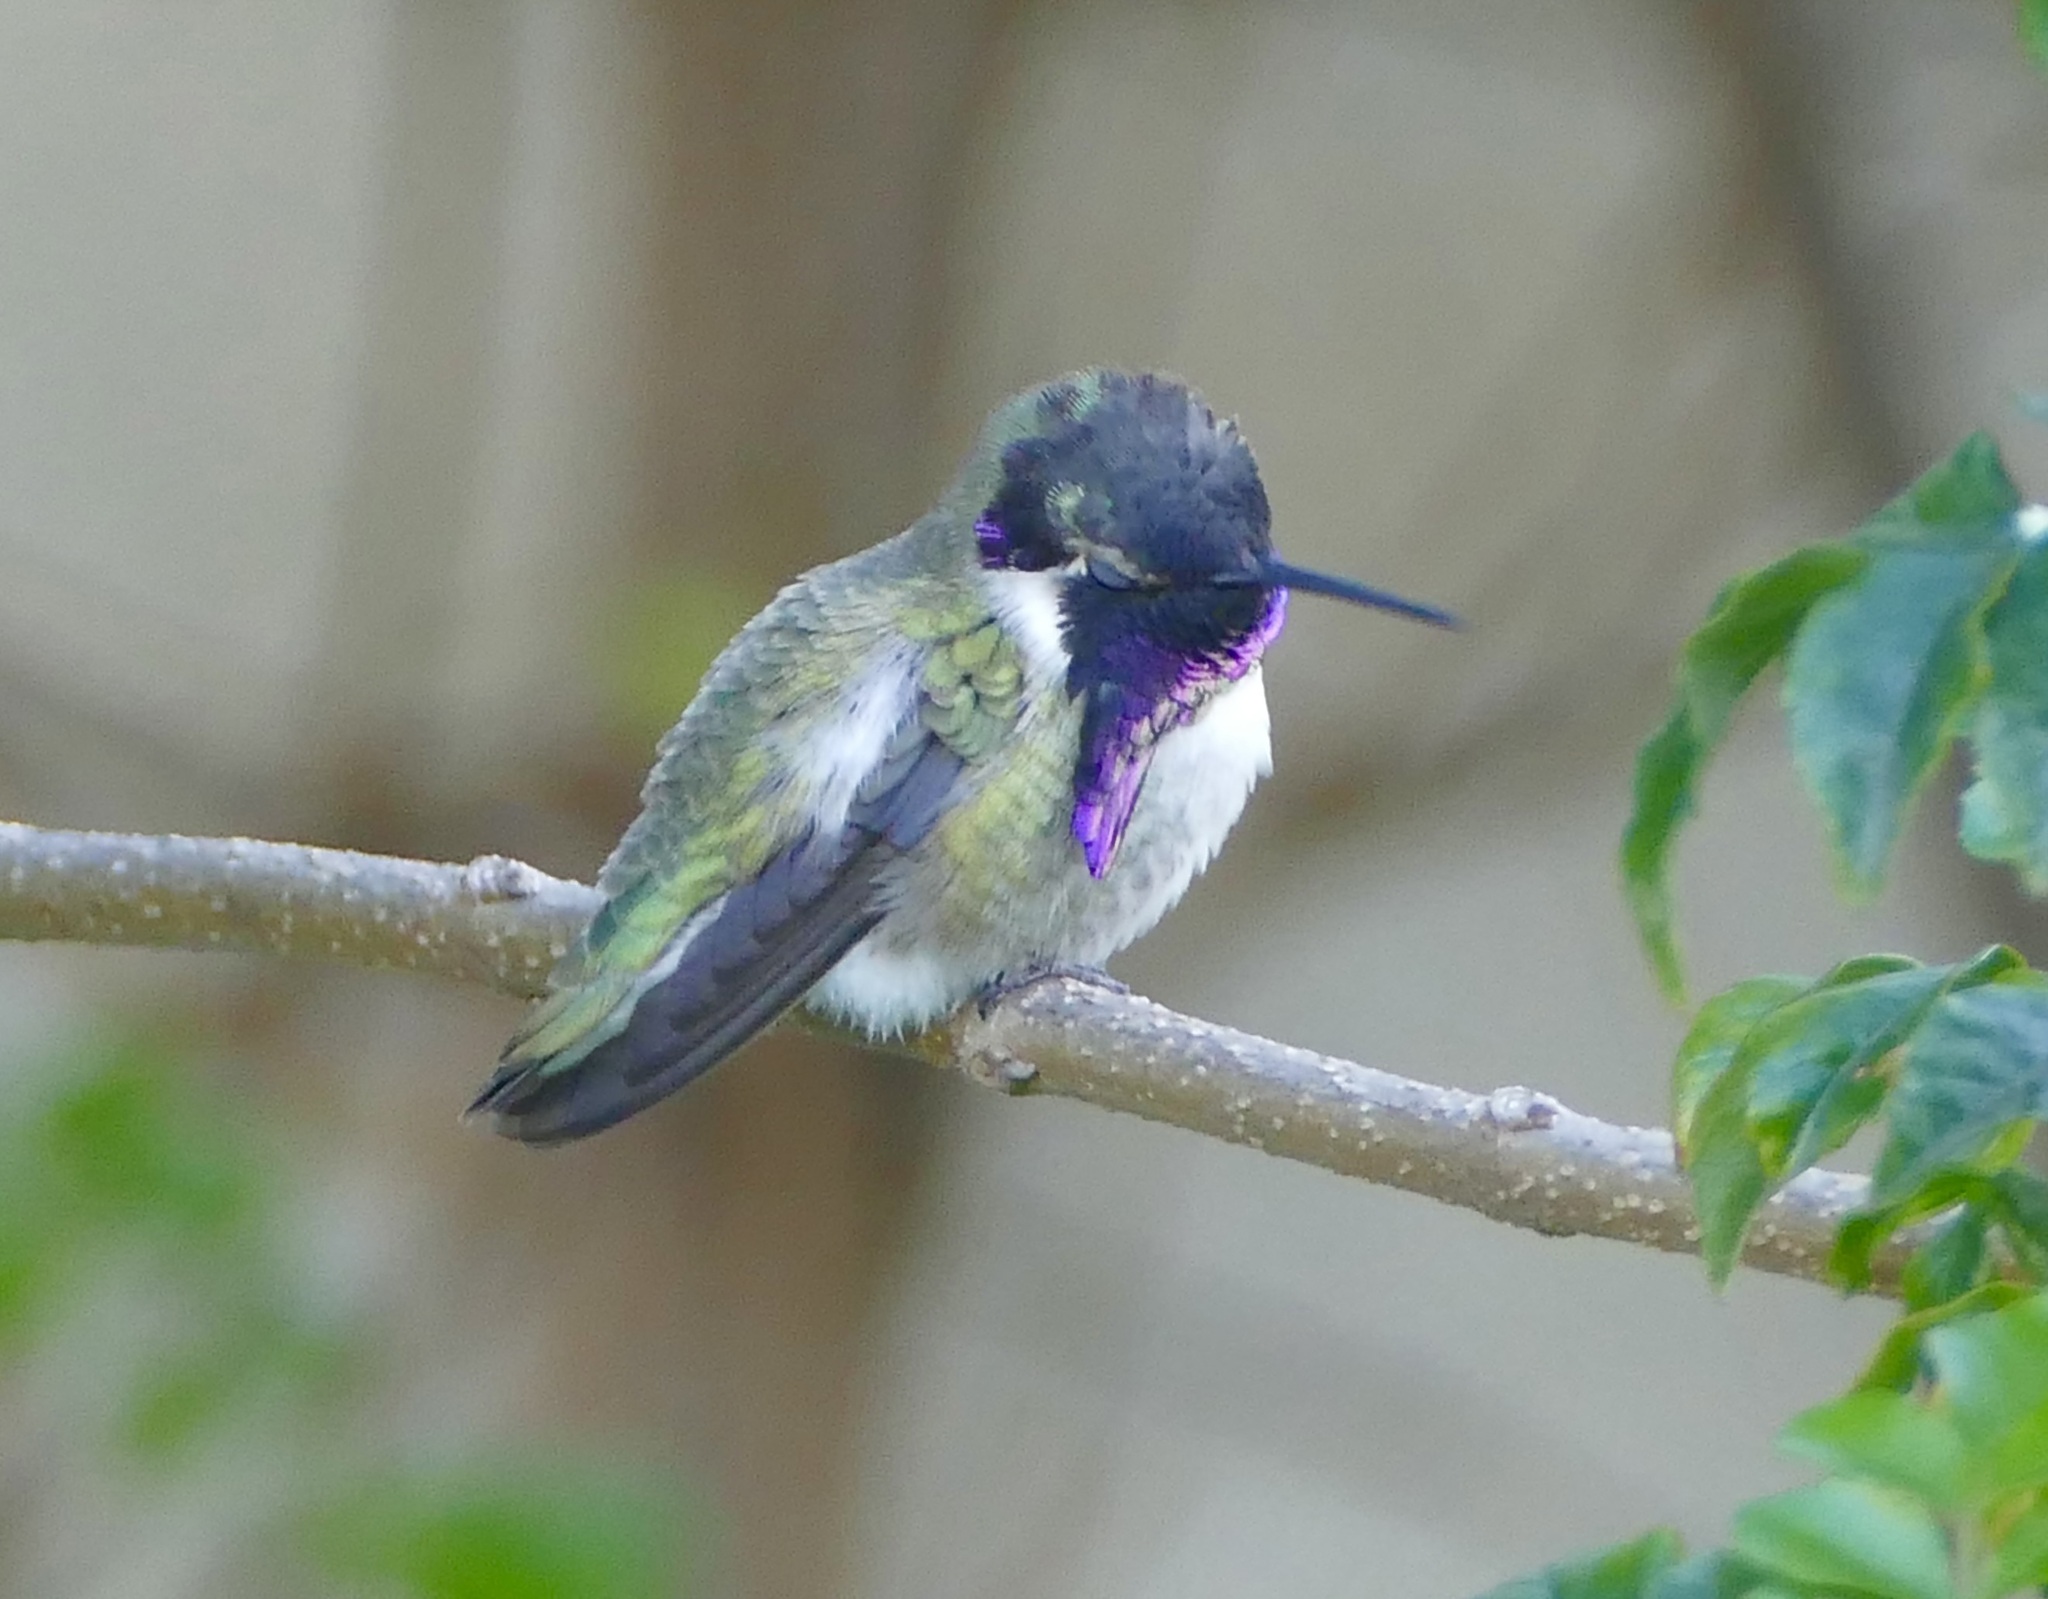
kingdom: Animalia
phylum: Chordata
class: Aves
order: Apodiformes
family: Trochilidae
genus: Calypte
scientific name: Calypte costae
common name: Costa's hummingbird
